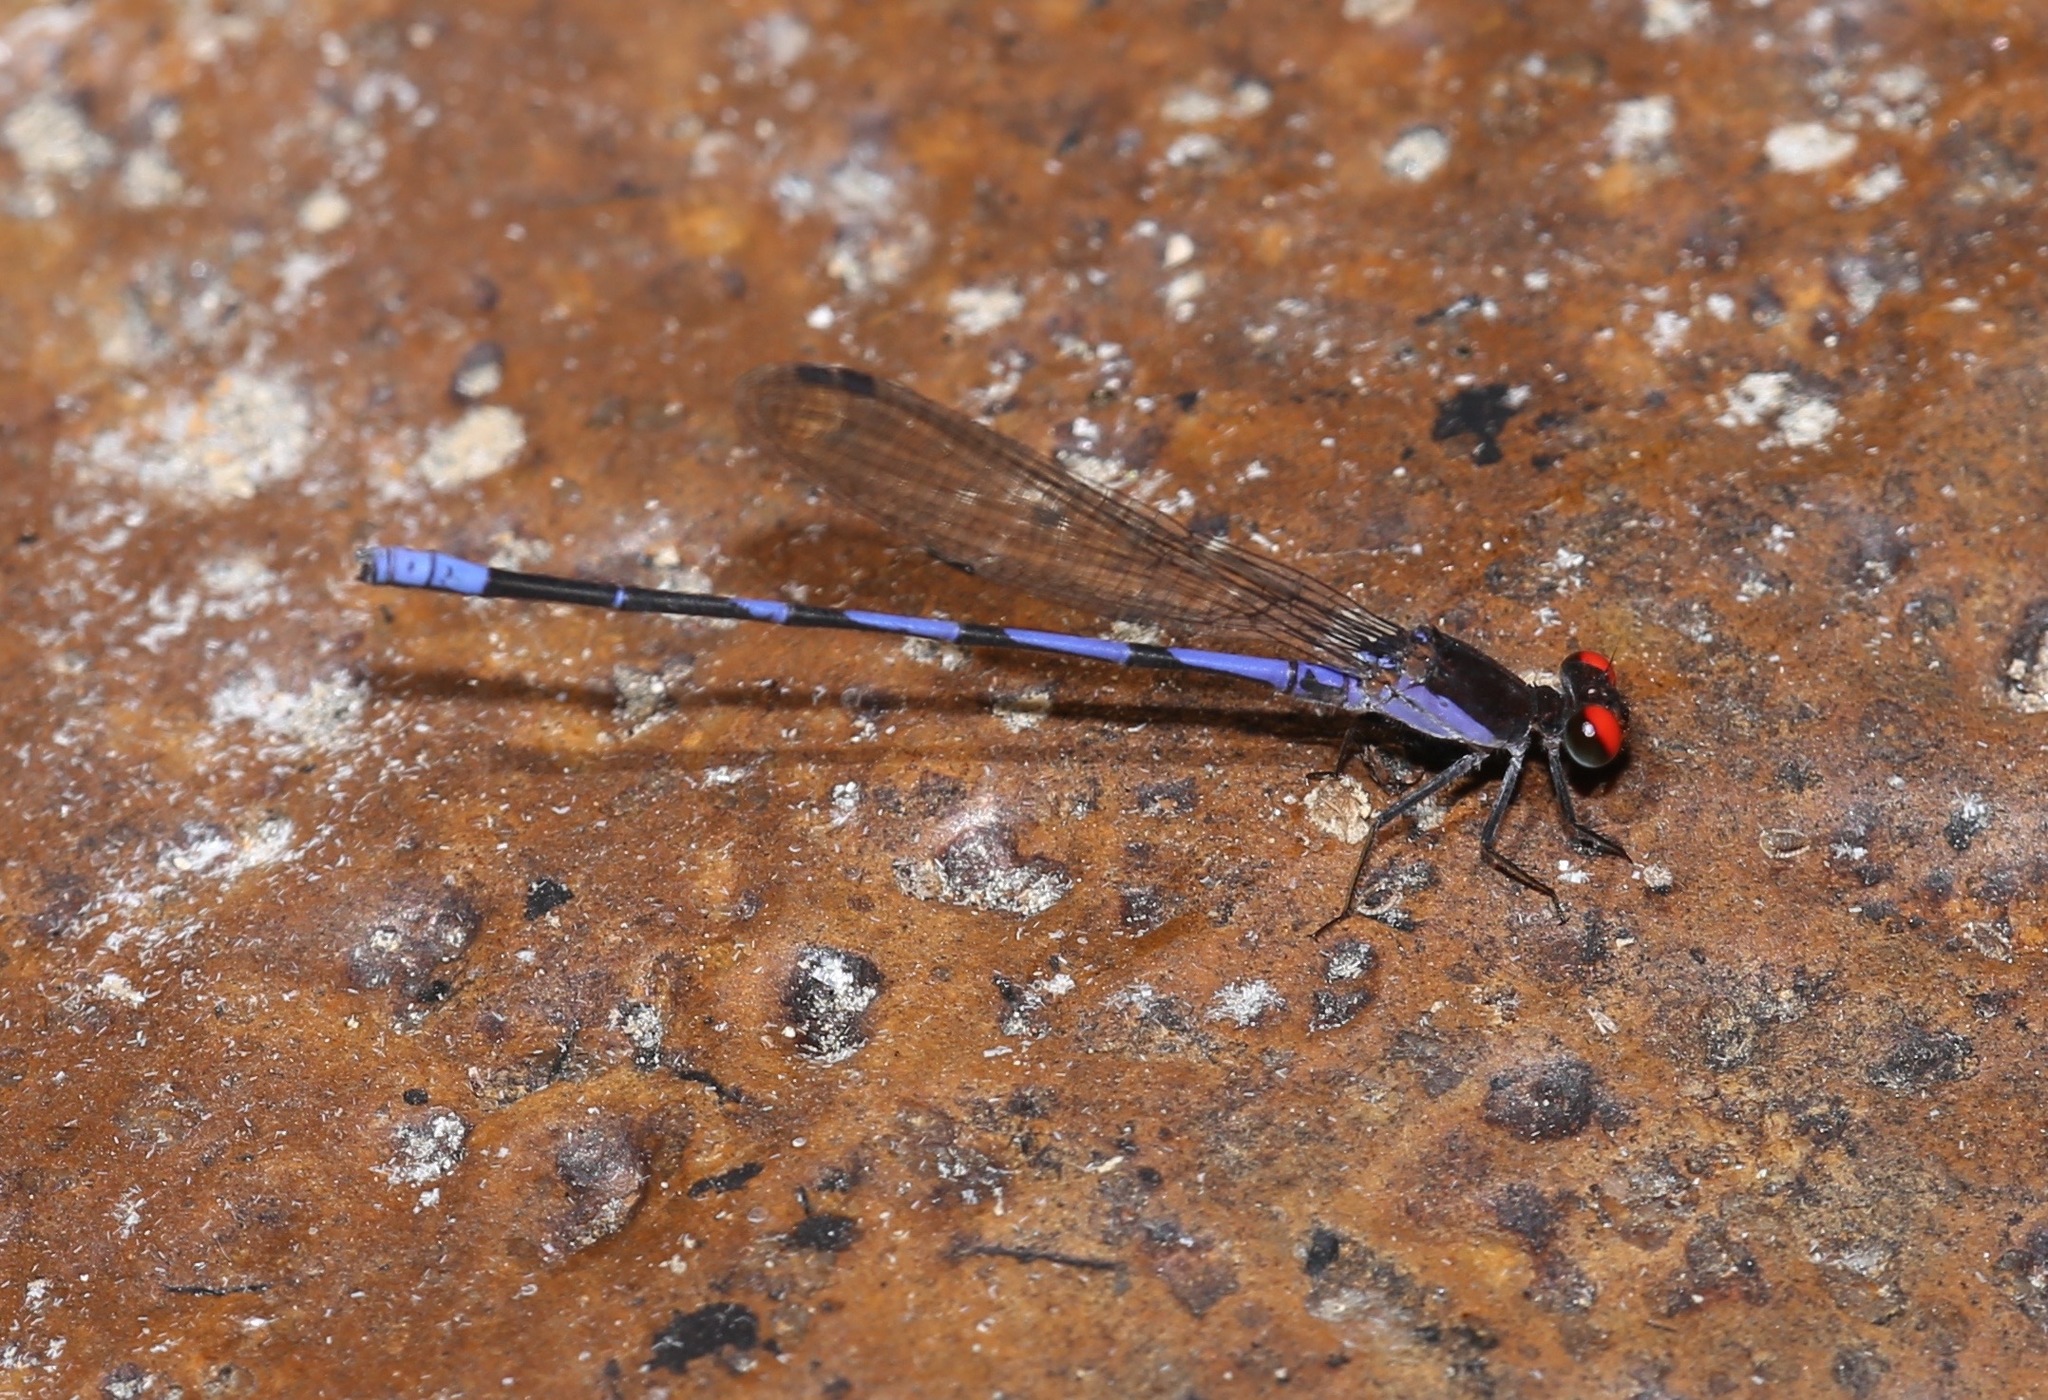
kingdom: Animalia
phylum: Arthropoda
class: Insecta
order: Odonata
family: Coenagrionidae
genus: Argia
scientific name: Argia oenea
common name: Fiery-eyed dancer
